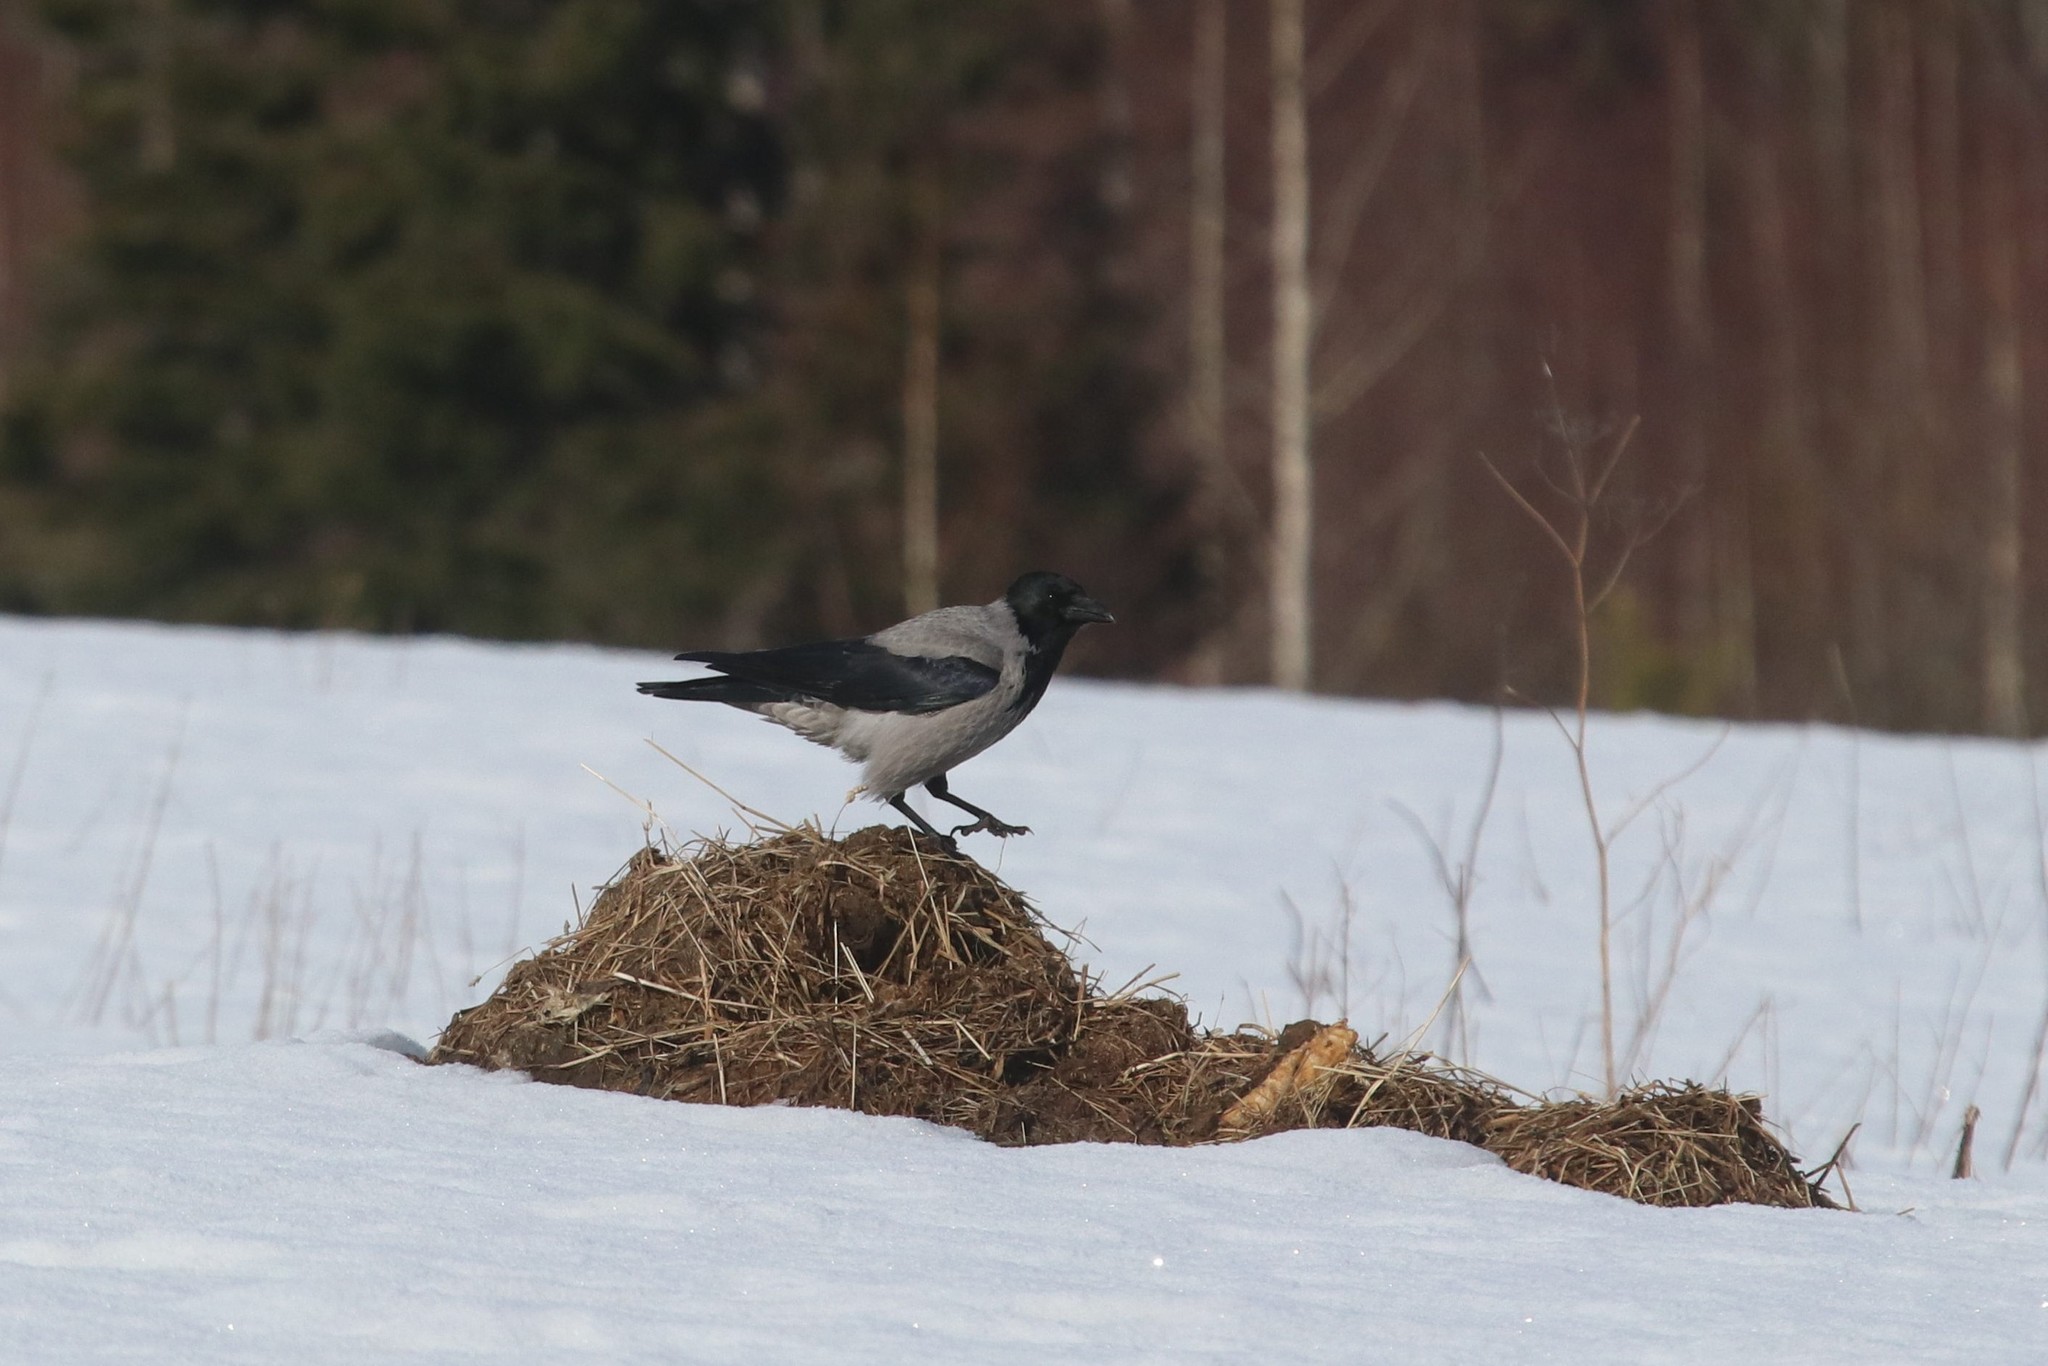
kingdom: Animalia
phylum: Chordata
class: Aves
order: Passeriformes
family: Corvidae
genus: Corvus
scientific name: Corvus cornix
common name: Hooded crow
